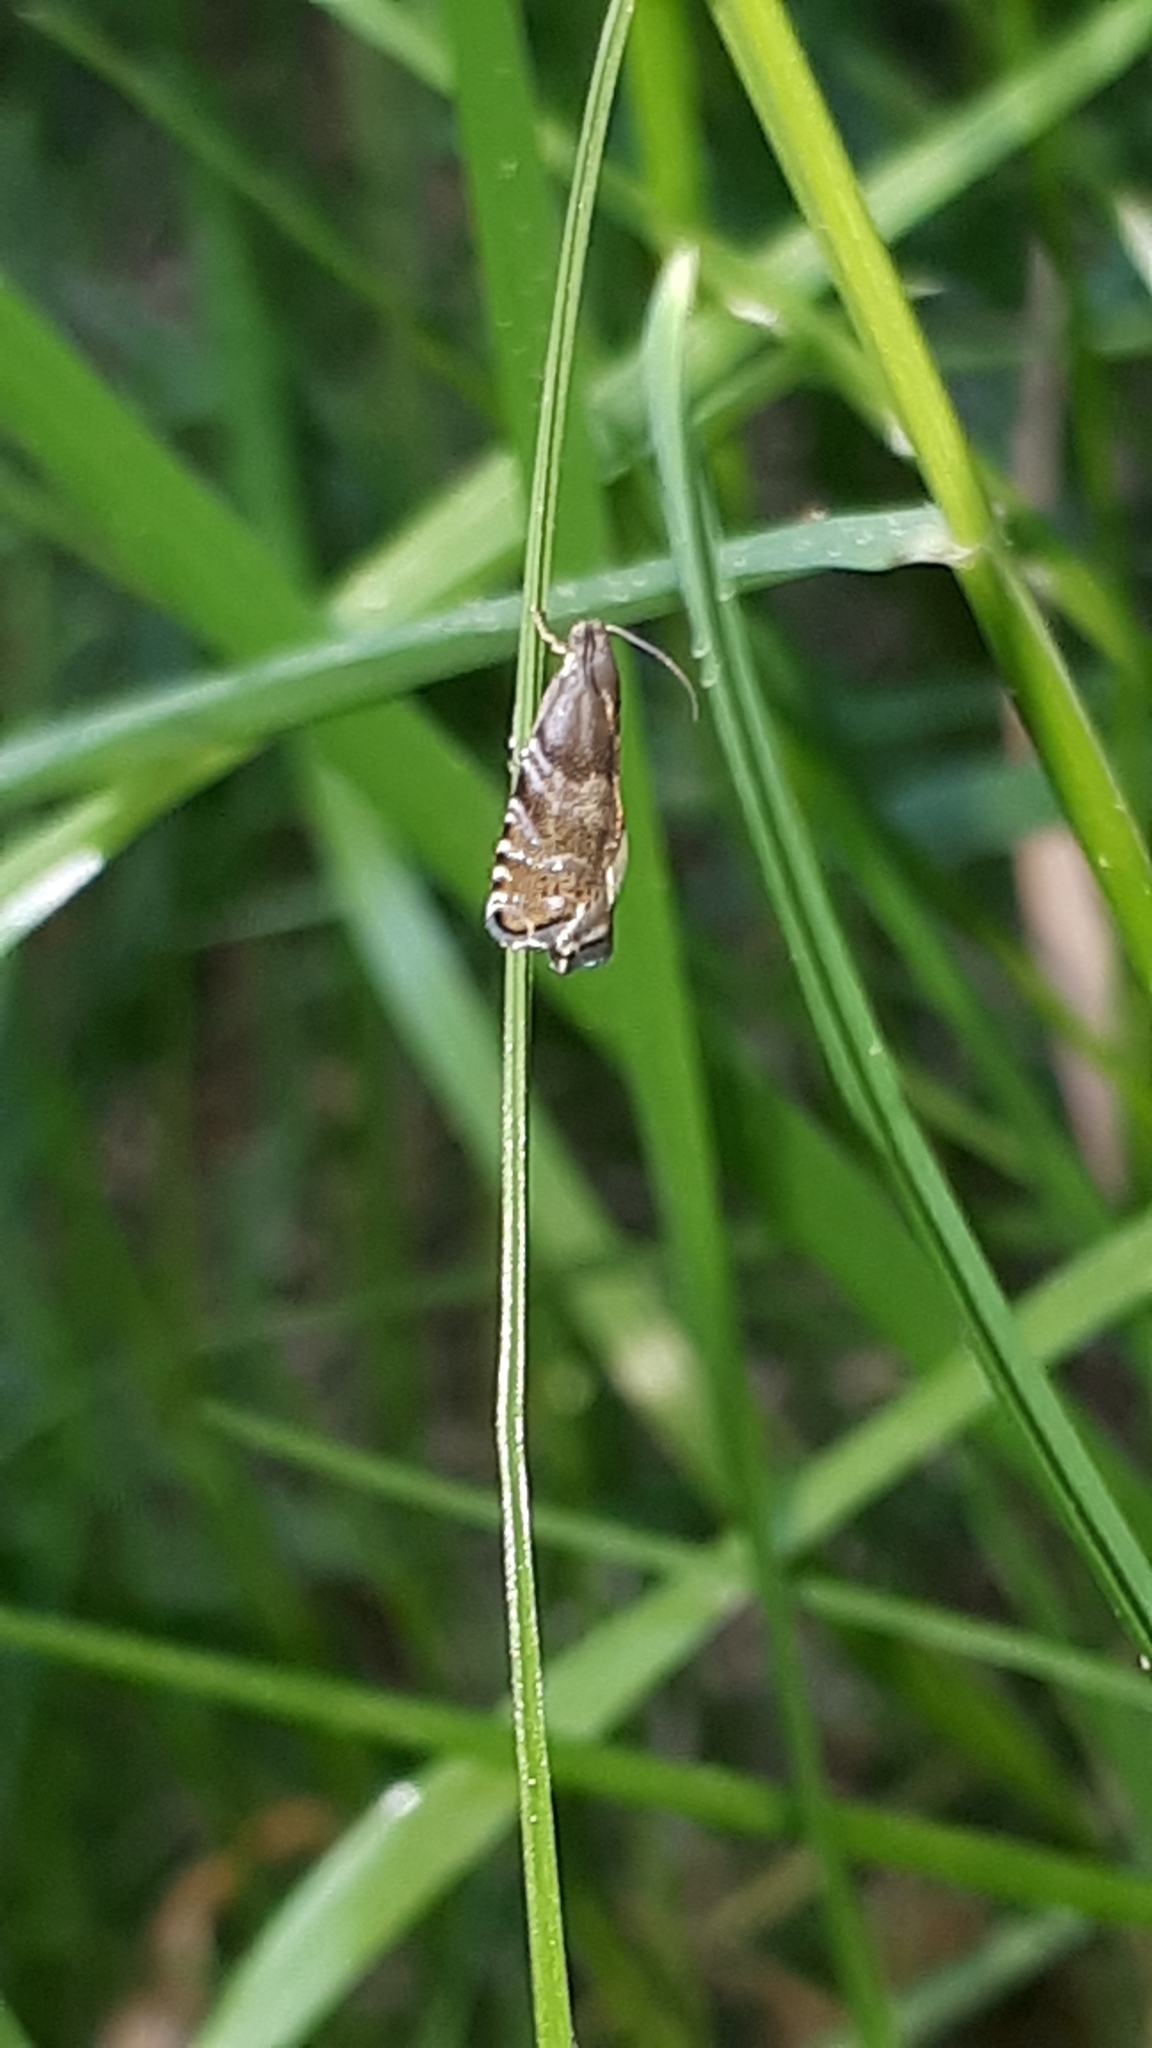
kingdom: Animalia
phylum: Arthropoda
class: Insecta
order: Lepidoptera
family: Tortricidae
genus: Cydia
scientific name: Cydia strobilella
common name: Spruce seed moth
